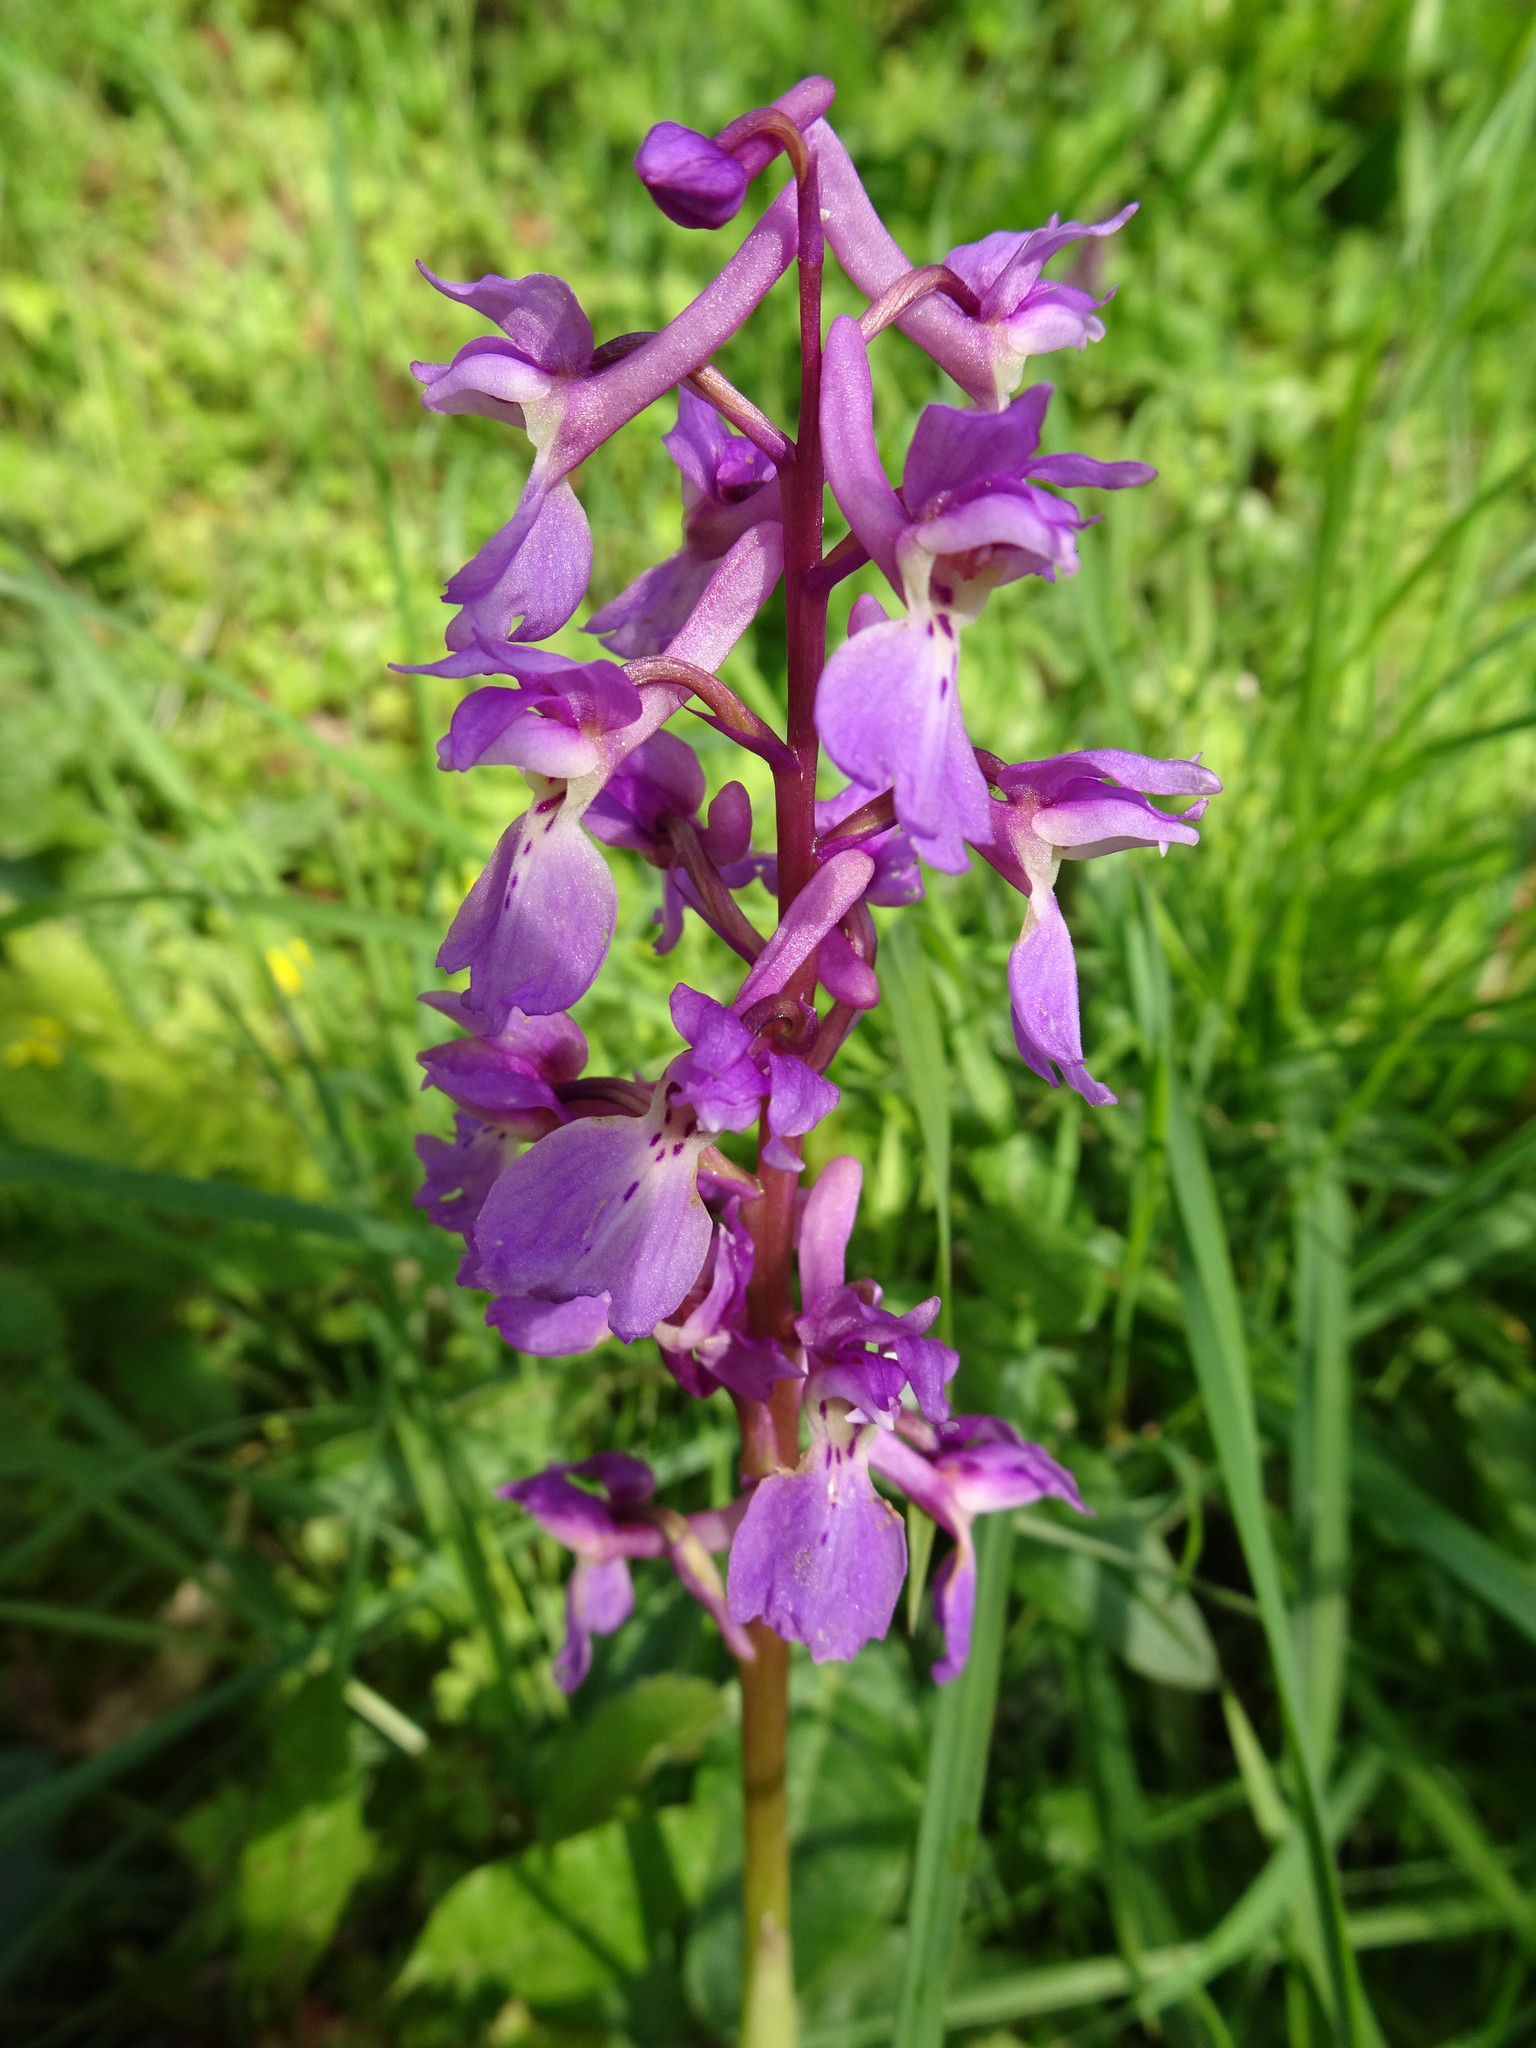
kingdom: Plantae
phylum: Tracheophyta
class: Liliopsida
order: Asparagales
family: Orchidaceae
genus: Orchis
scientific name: Orchis mascula
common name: Early-purple orchid
